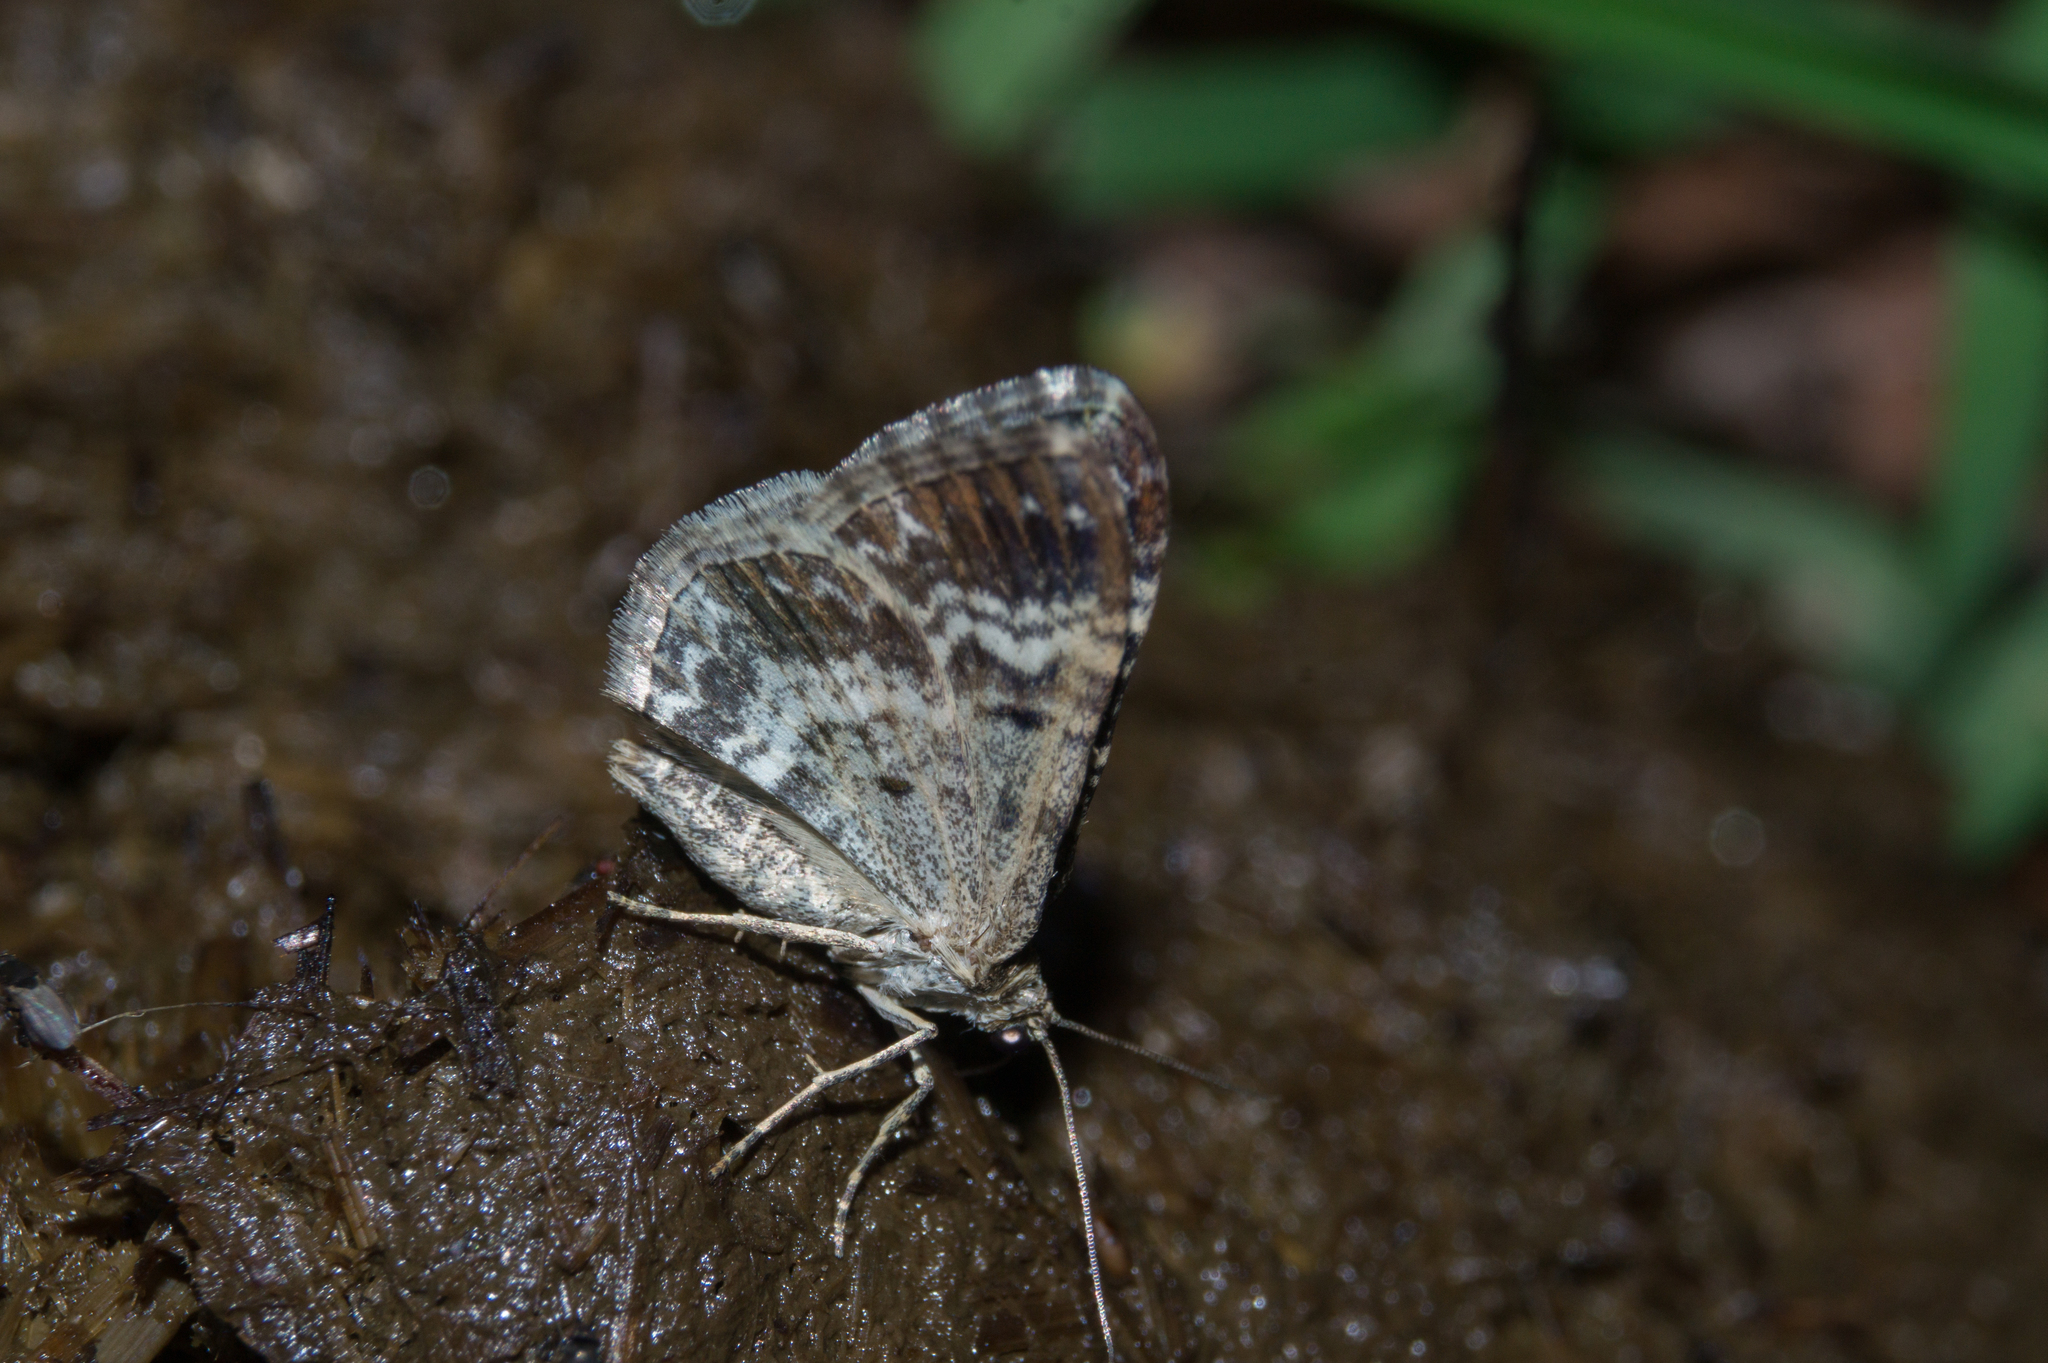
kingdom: Animalia
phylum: Arthropoda
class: Insecta
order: Lepidoptera
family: Geometridae
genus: Epirrhoe
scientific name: Epirrhoe alternata
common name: Common carpet
